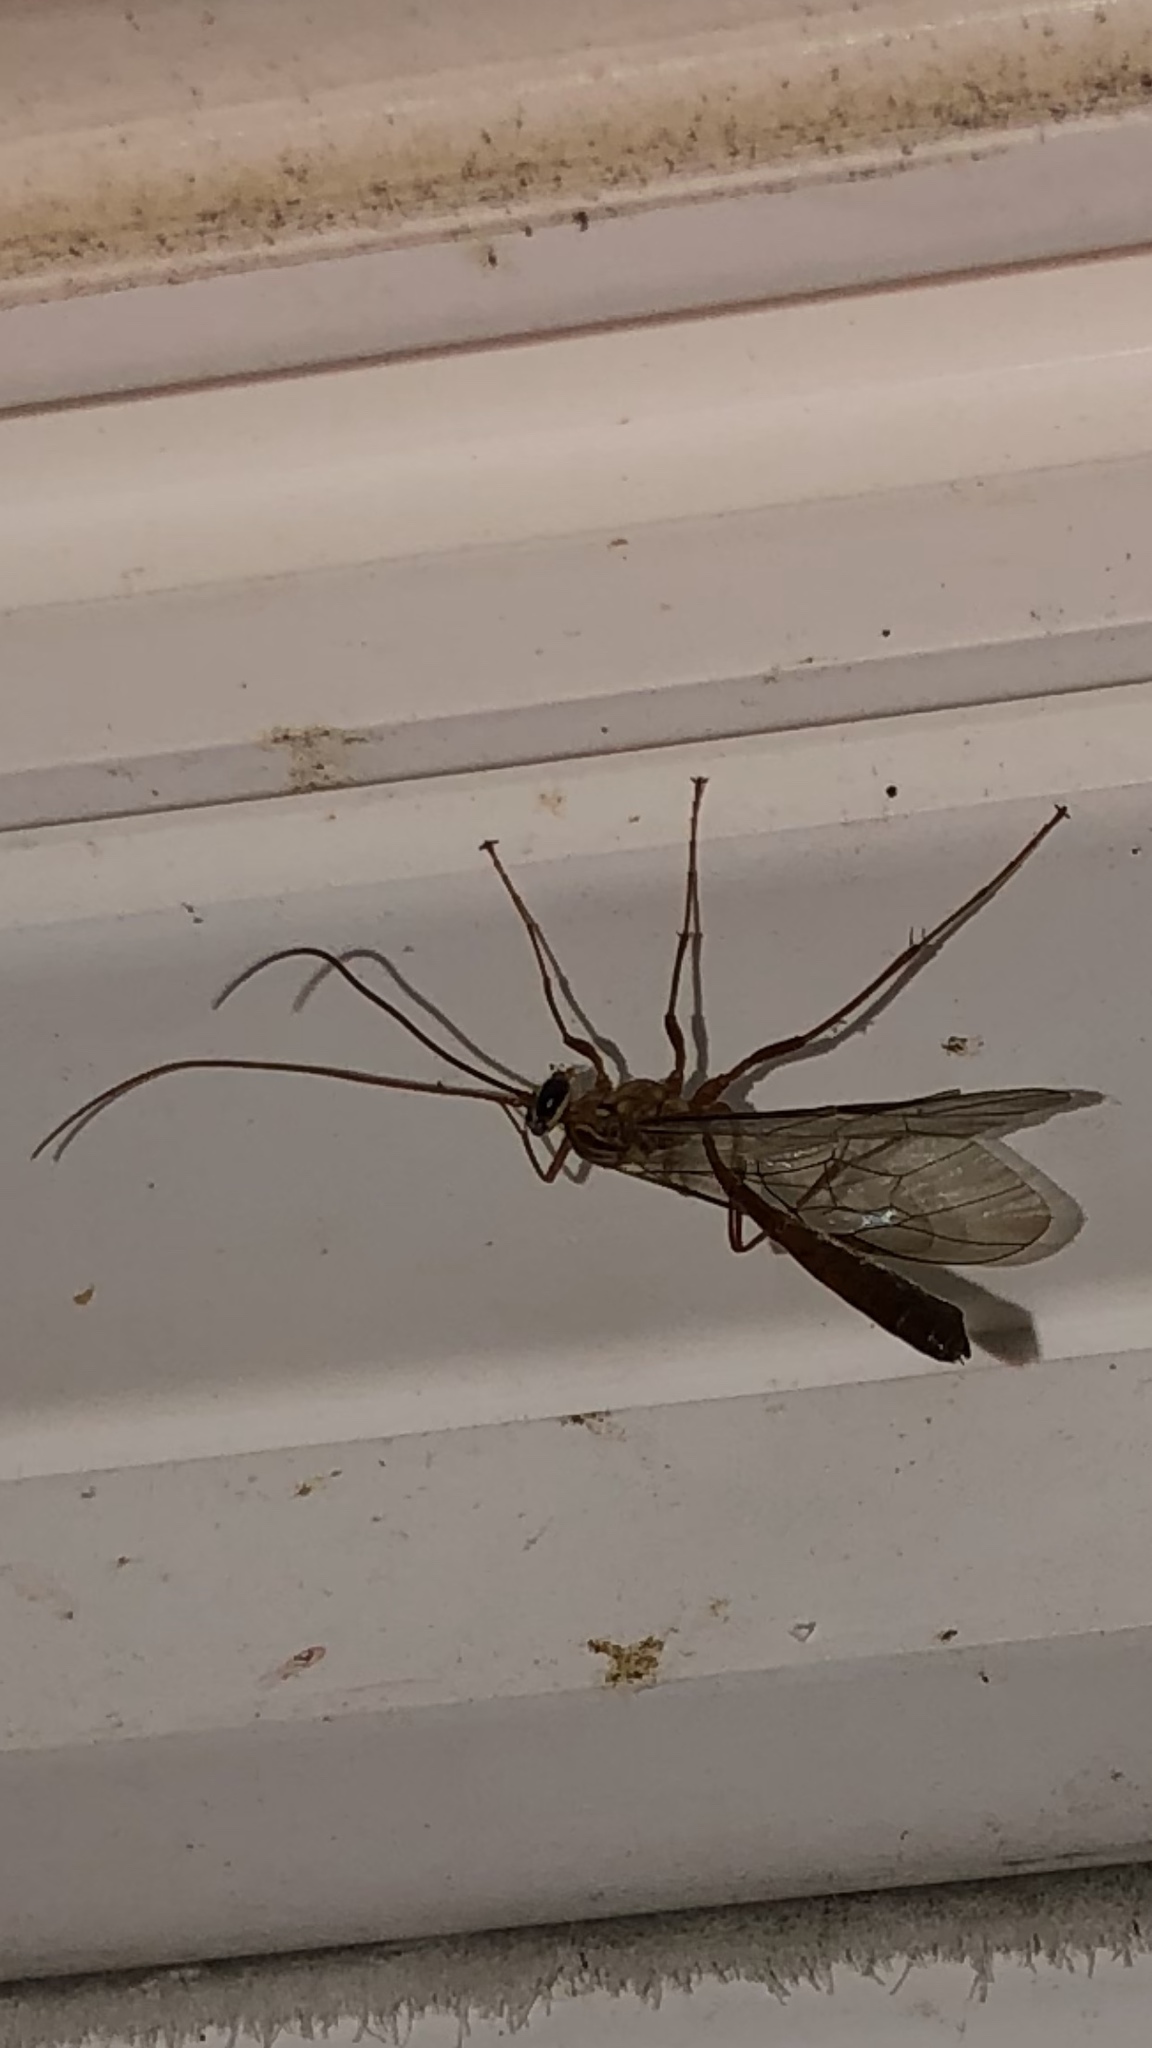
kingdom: Animalia
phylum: Arthropoda
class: Insecta
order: Hymenoptera
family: Ichneumonidae
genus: Ophion
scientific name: Ophion
